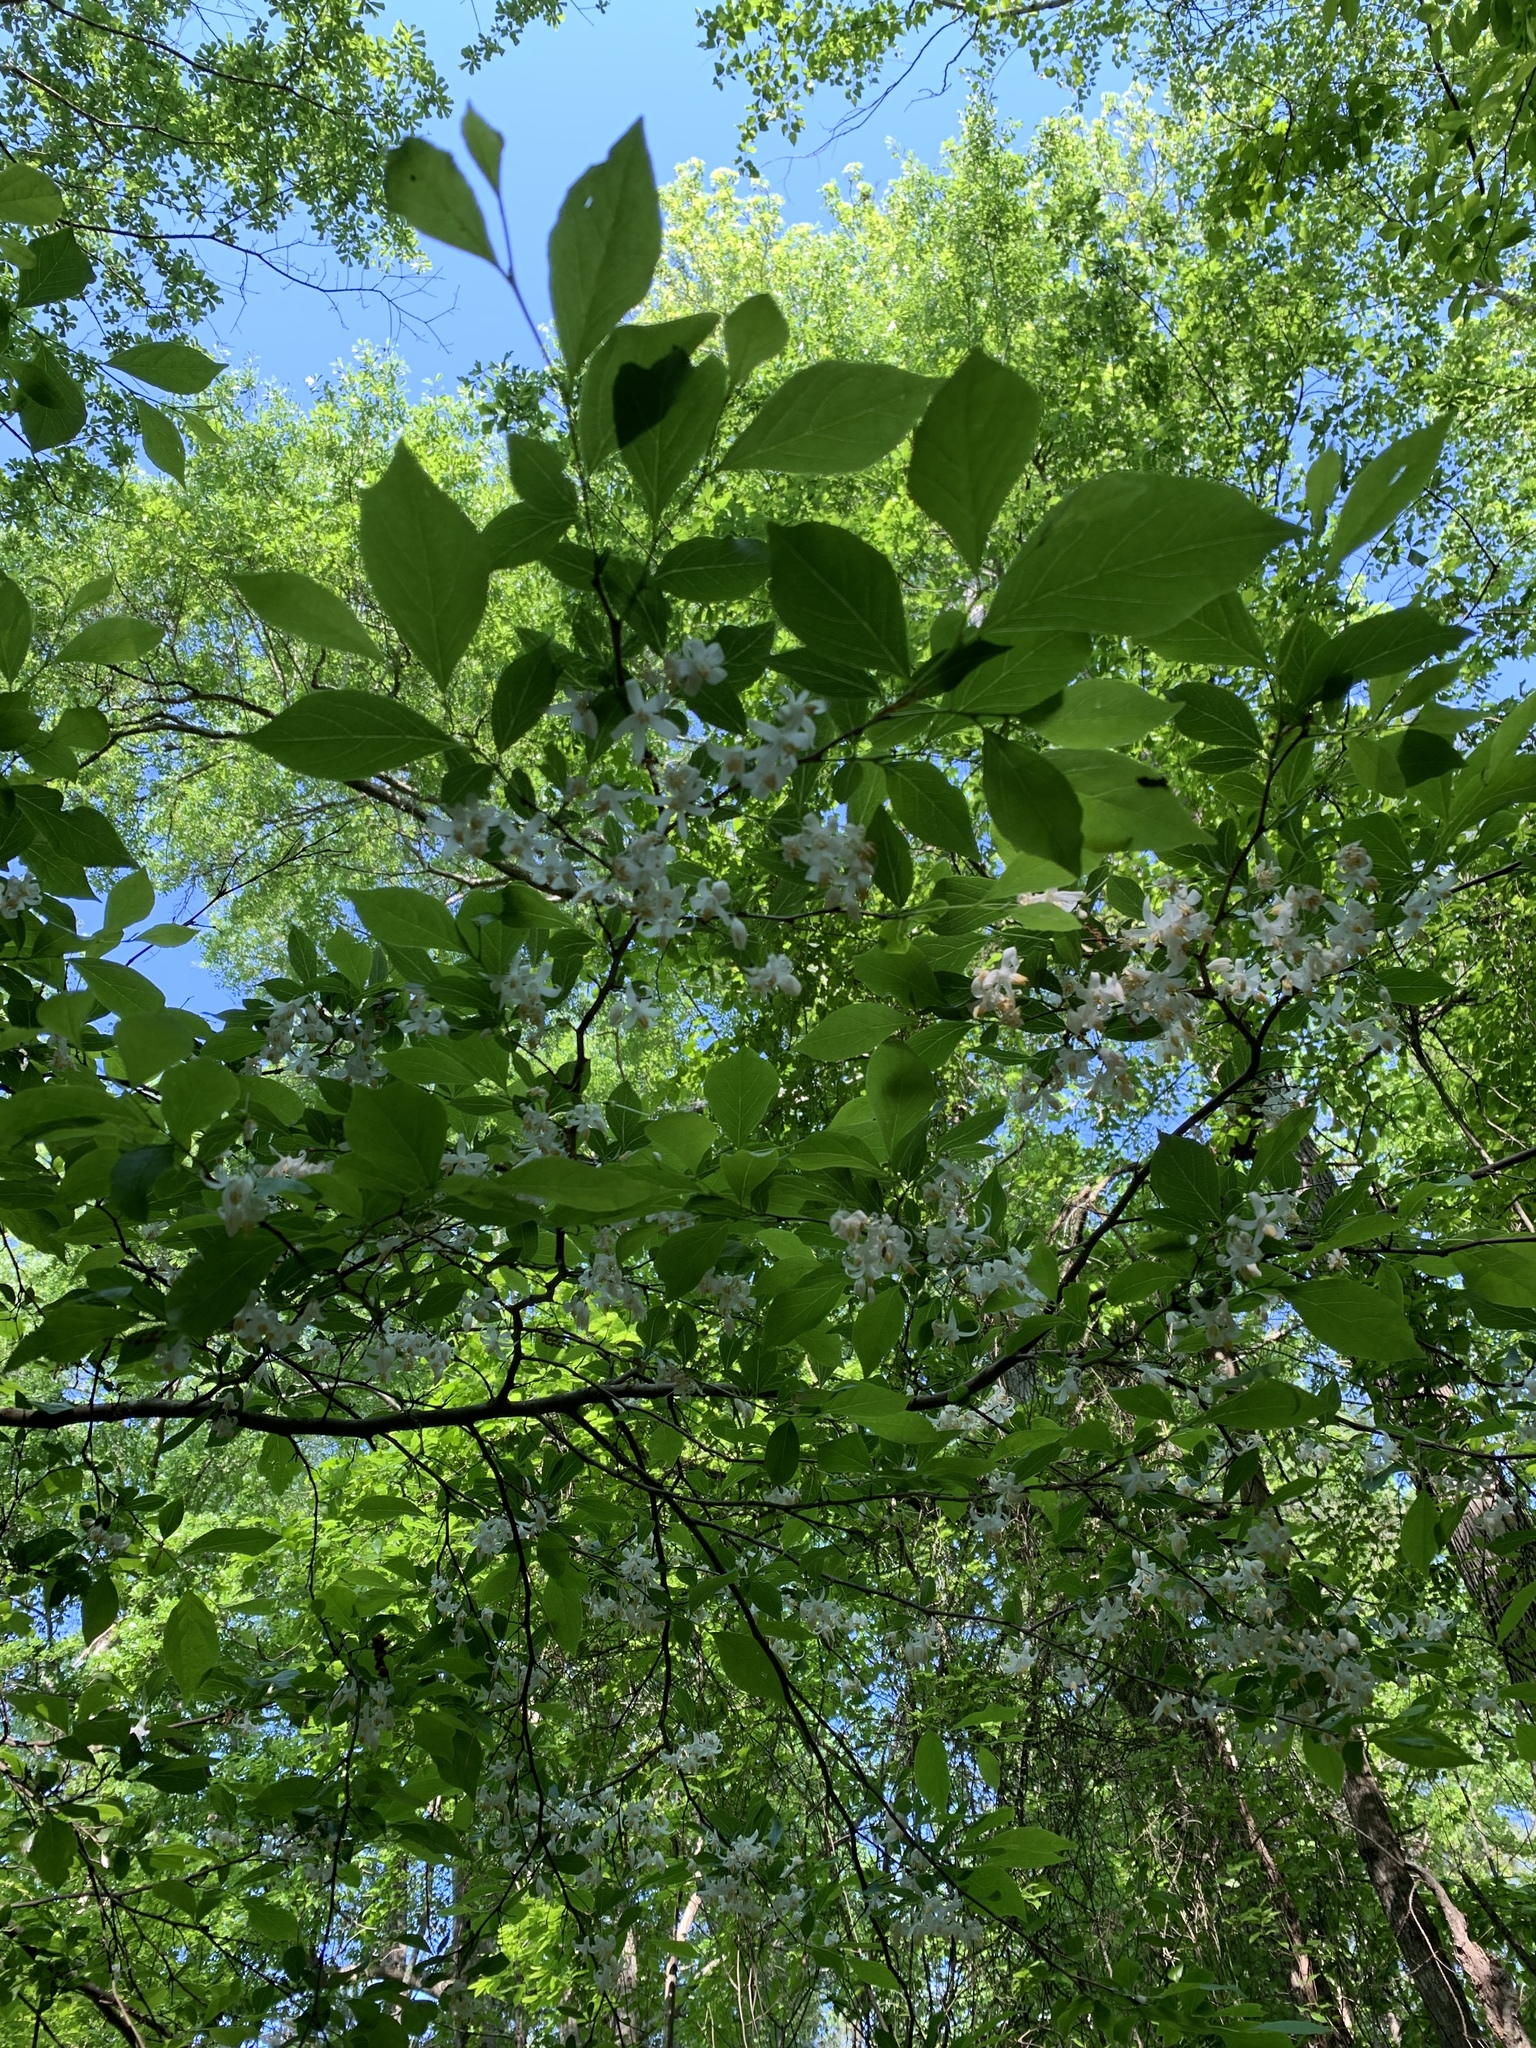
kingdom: Plantae
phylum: Tracheophyta
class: Magnoliopsida
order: Ericales
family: Styracaceae
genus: Halesia
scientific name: Halesia carolina
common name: Carolina silverbell
